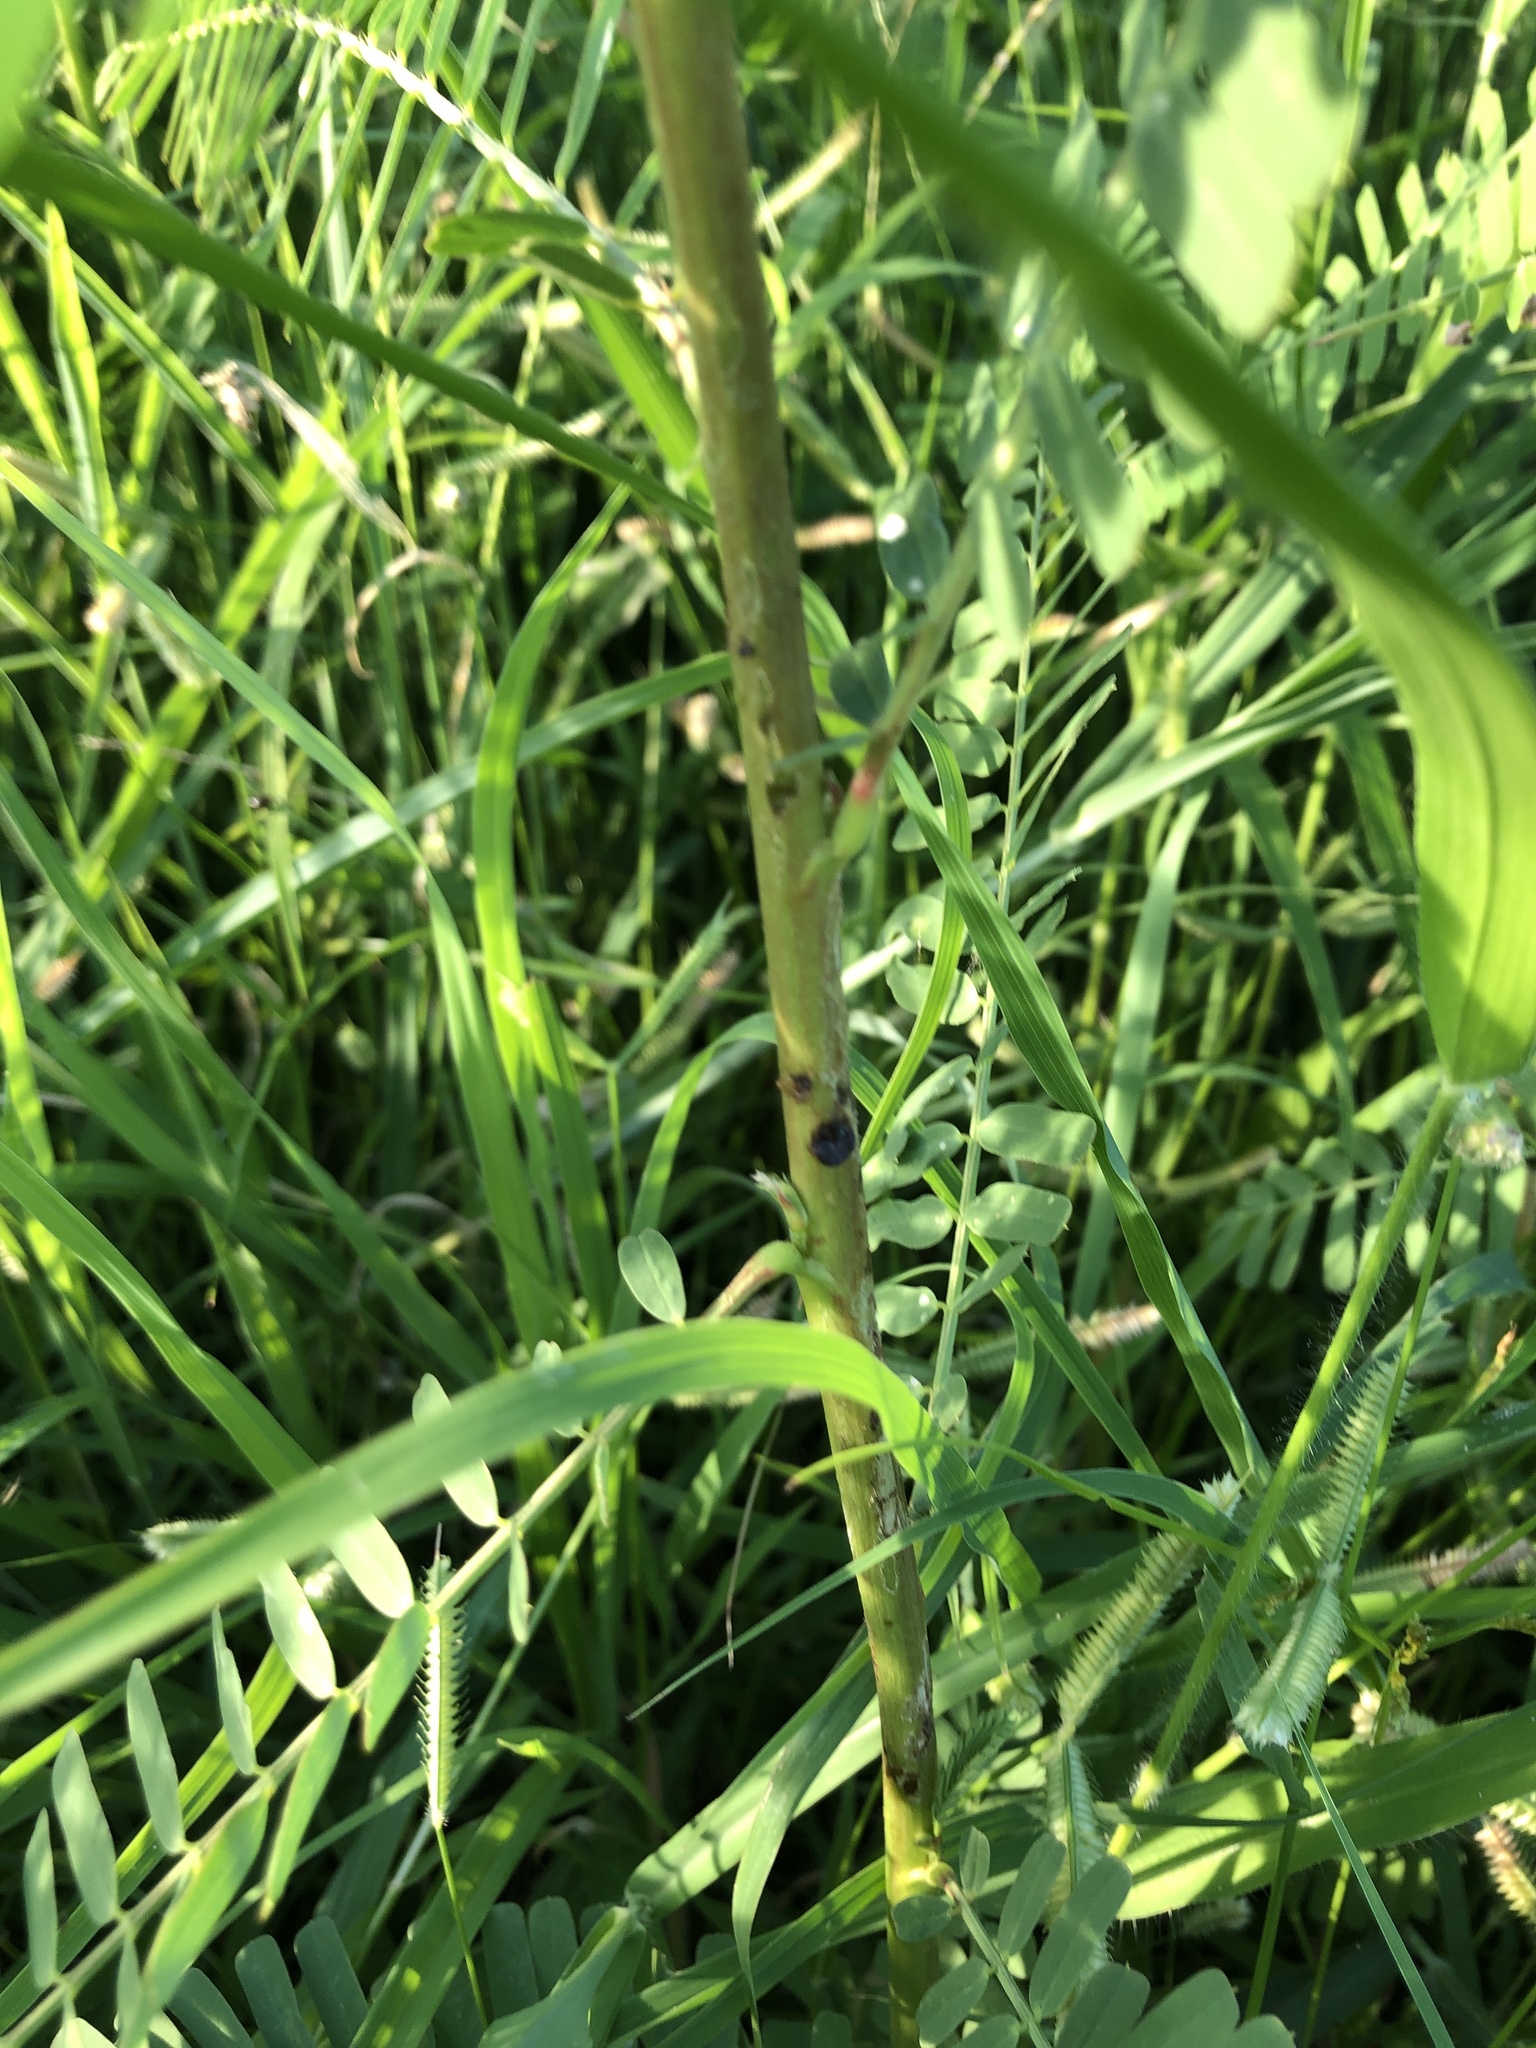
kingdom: Plantae
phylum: Tracheophyta
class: Magnoliopsida
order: Fabales
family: Fabaceae
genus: Sesbania
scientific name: Sesbania cannabina
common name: Canicha
